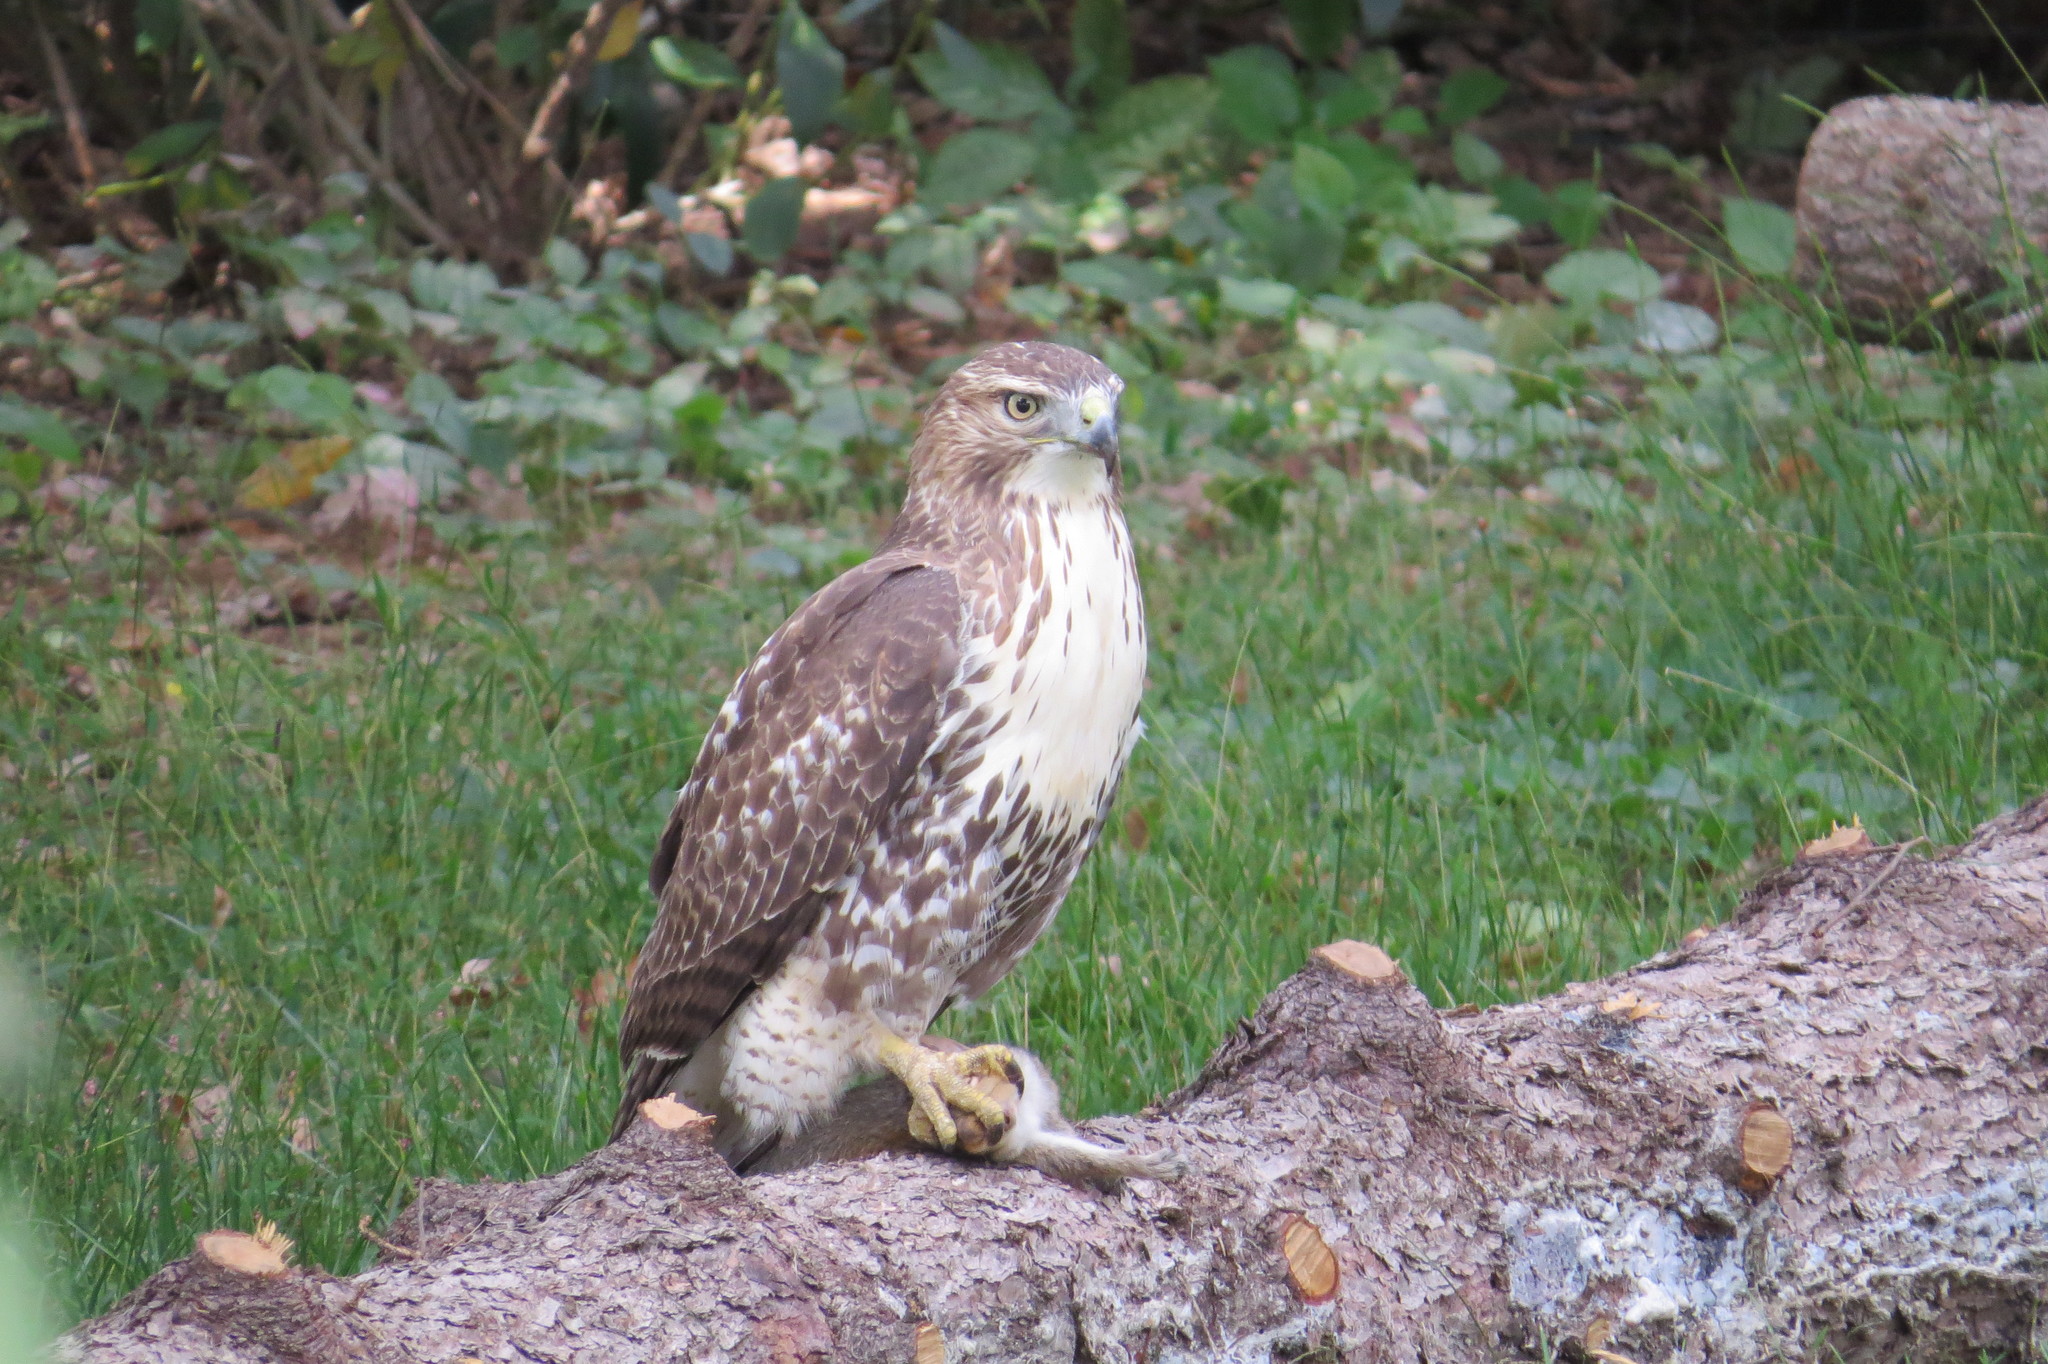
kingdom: Animalia
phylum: Chordata
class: Aves
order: Accipitriformes
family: Accipitridae
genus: Buteo
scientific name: Buteo jamaicensis
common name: Red-tailed hawk
